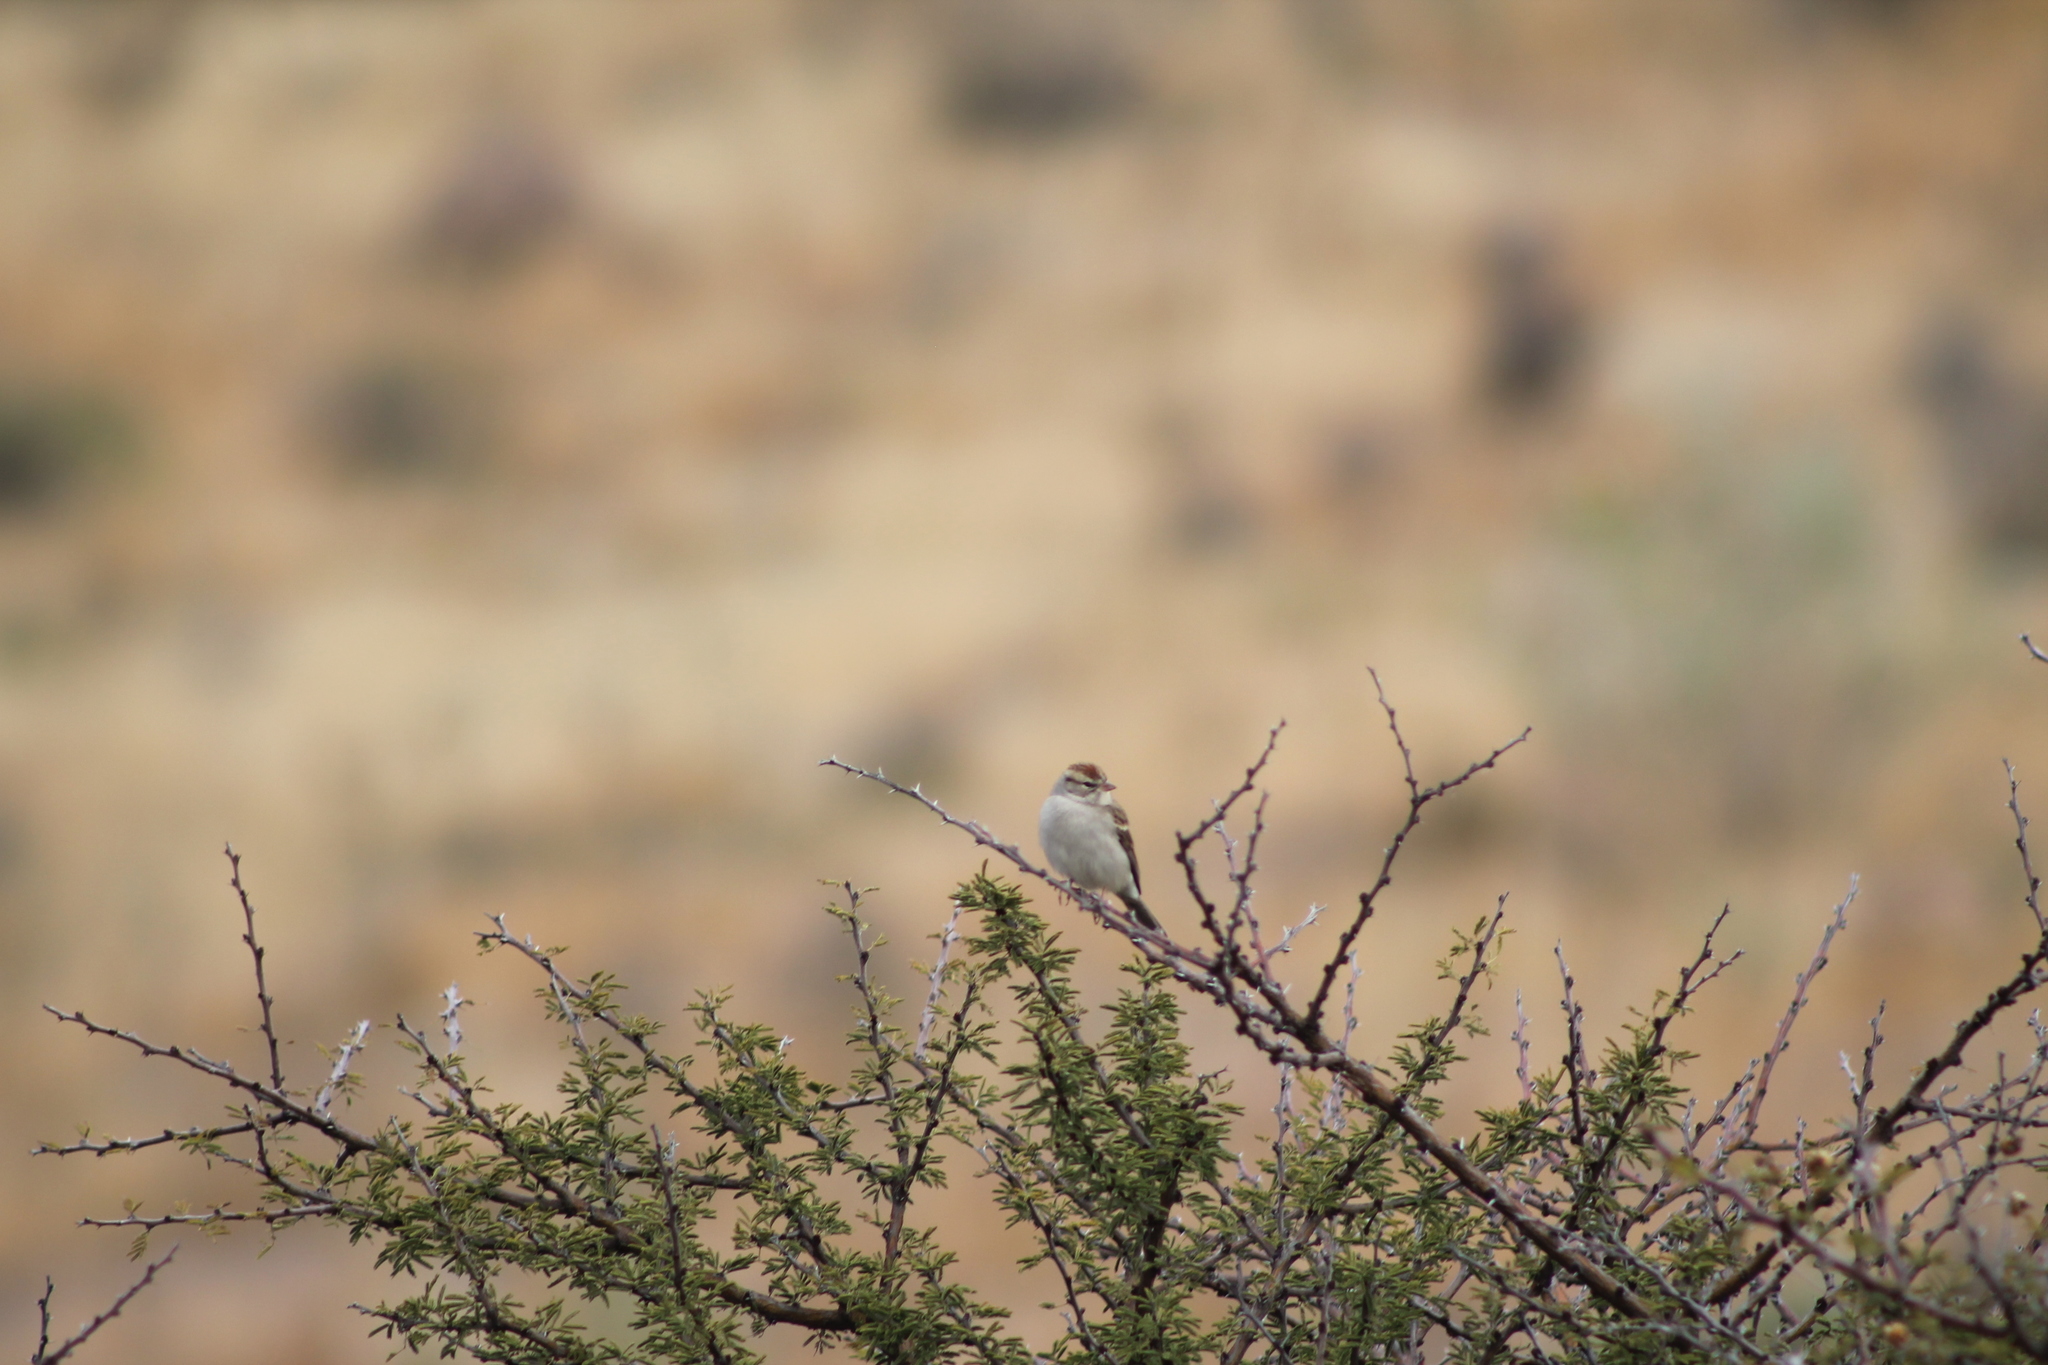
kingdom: Animalia
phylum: Chordata
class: Aves
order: Passeriformes
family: Passerellidae
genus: Spizella
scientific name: Spizella passerina
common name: Chipping sparrow
